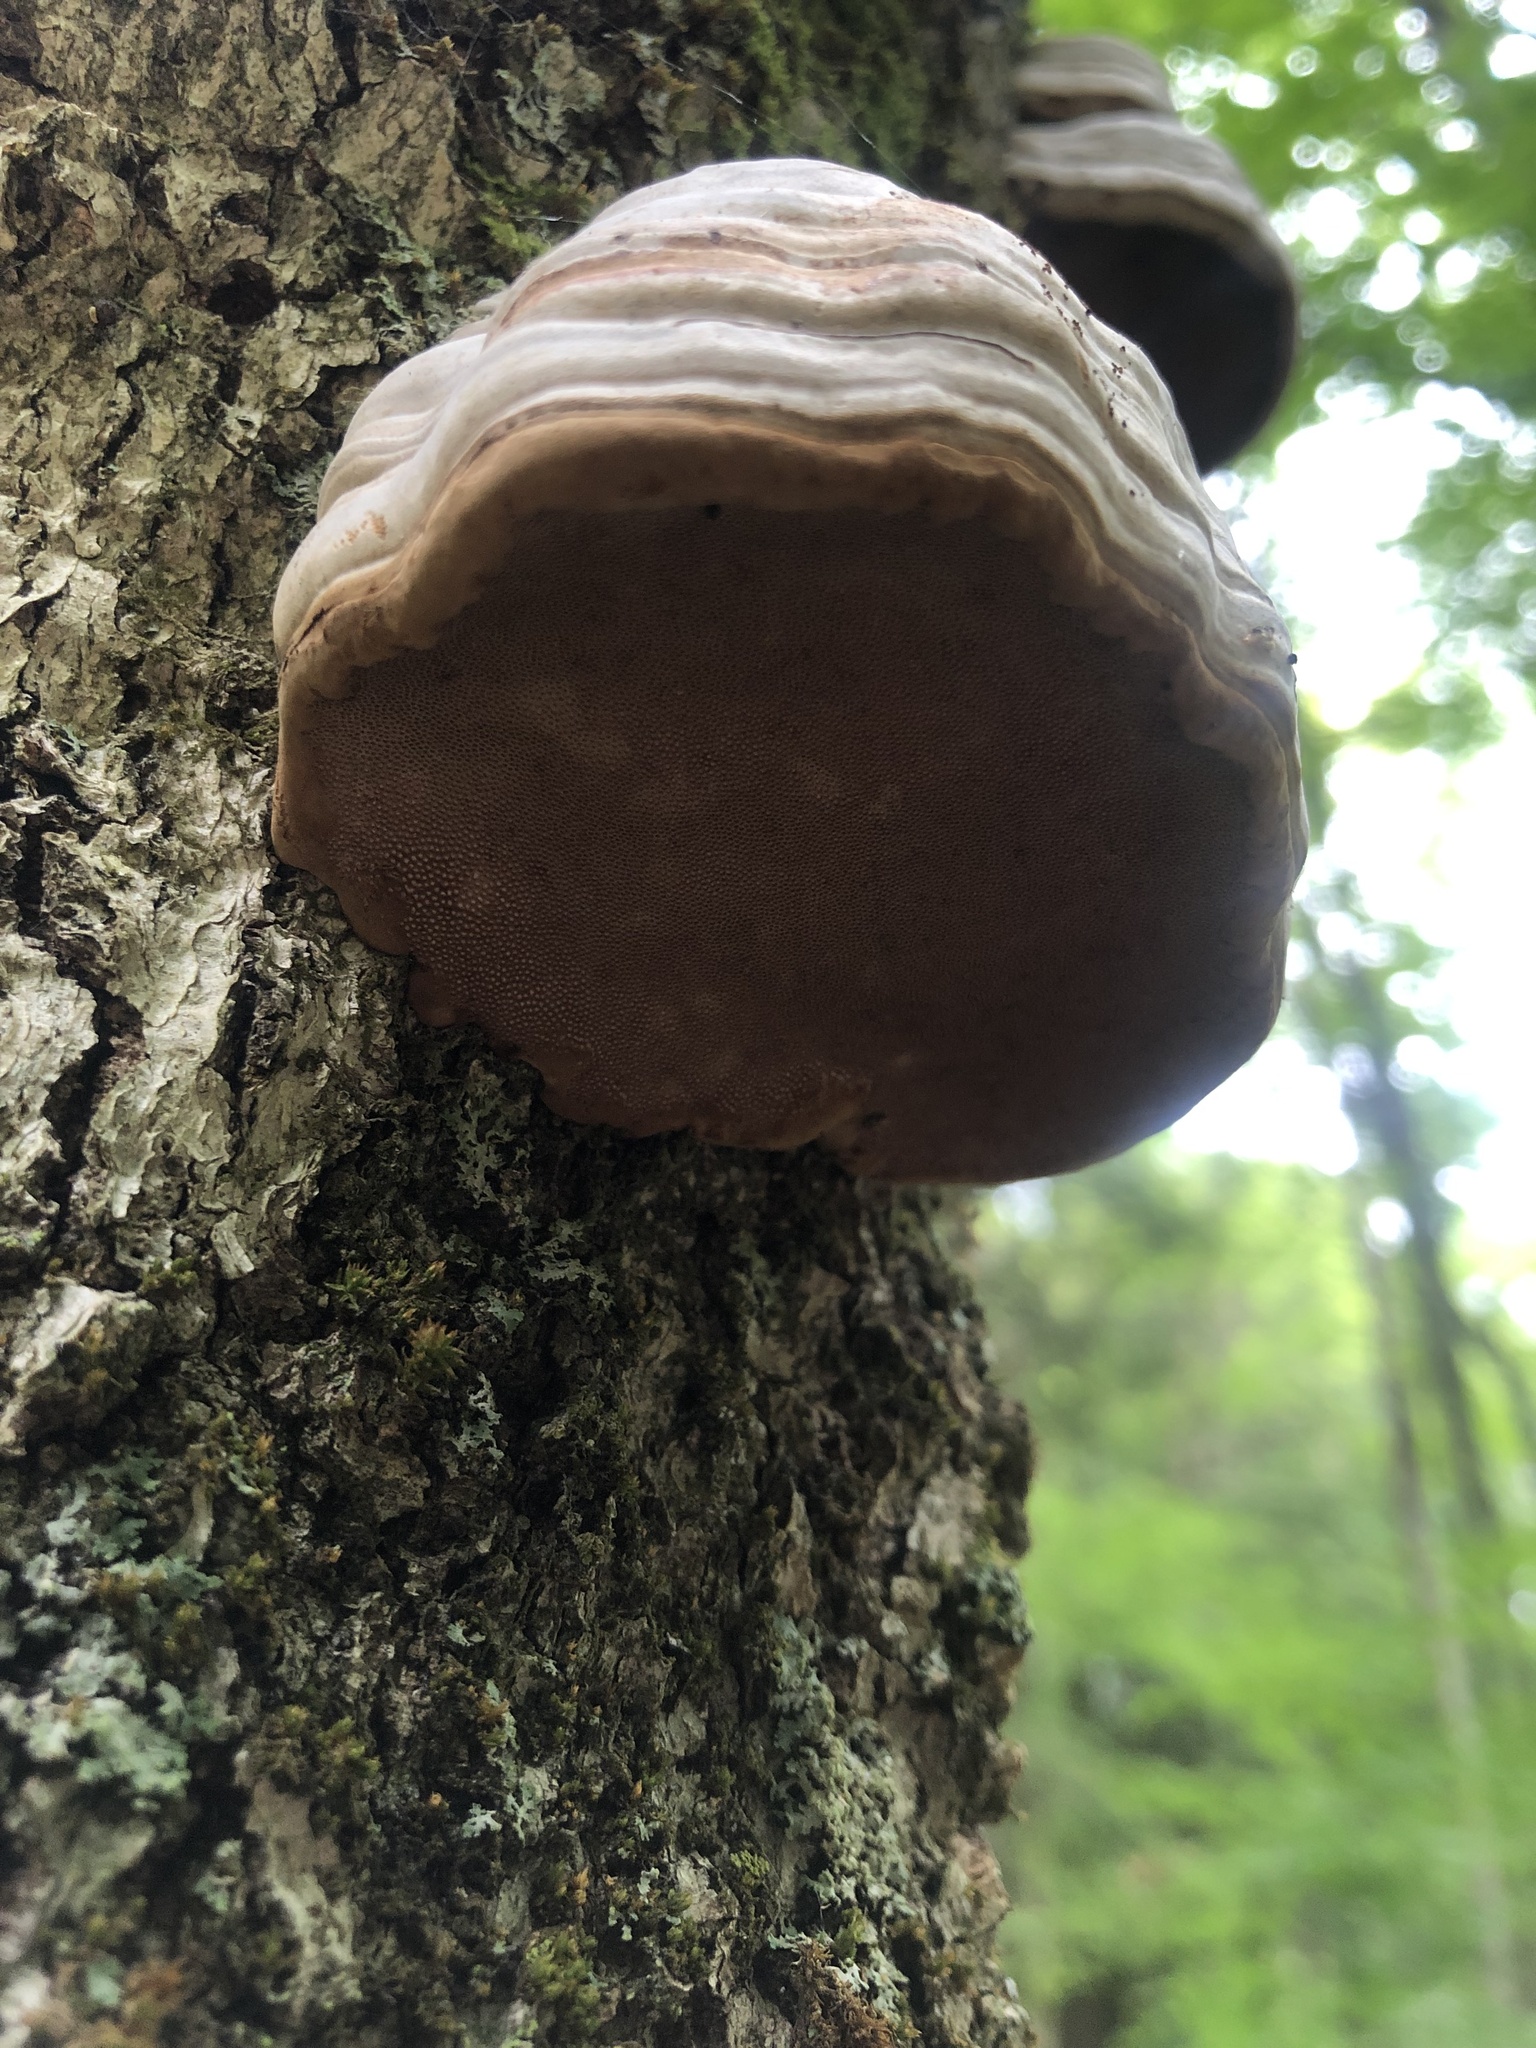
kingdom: Fungi
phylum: Basidiomycota
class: Agaricomycetes
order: Polyporales
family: Polyporaceae
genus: Fomes
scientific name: Fomes fomentarius
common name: Hoof fungus
